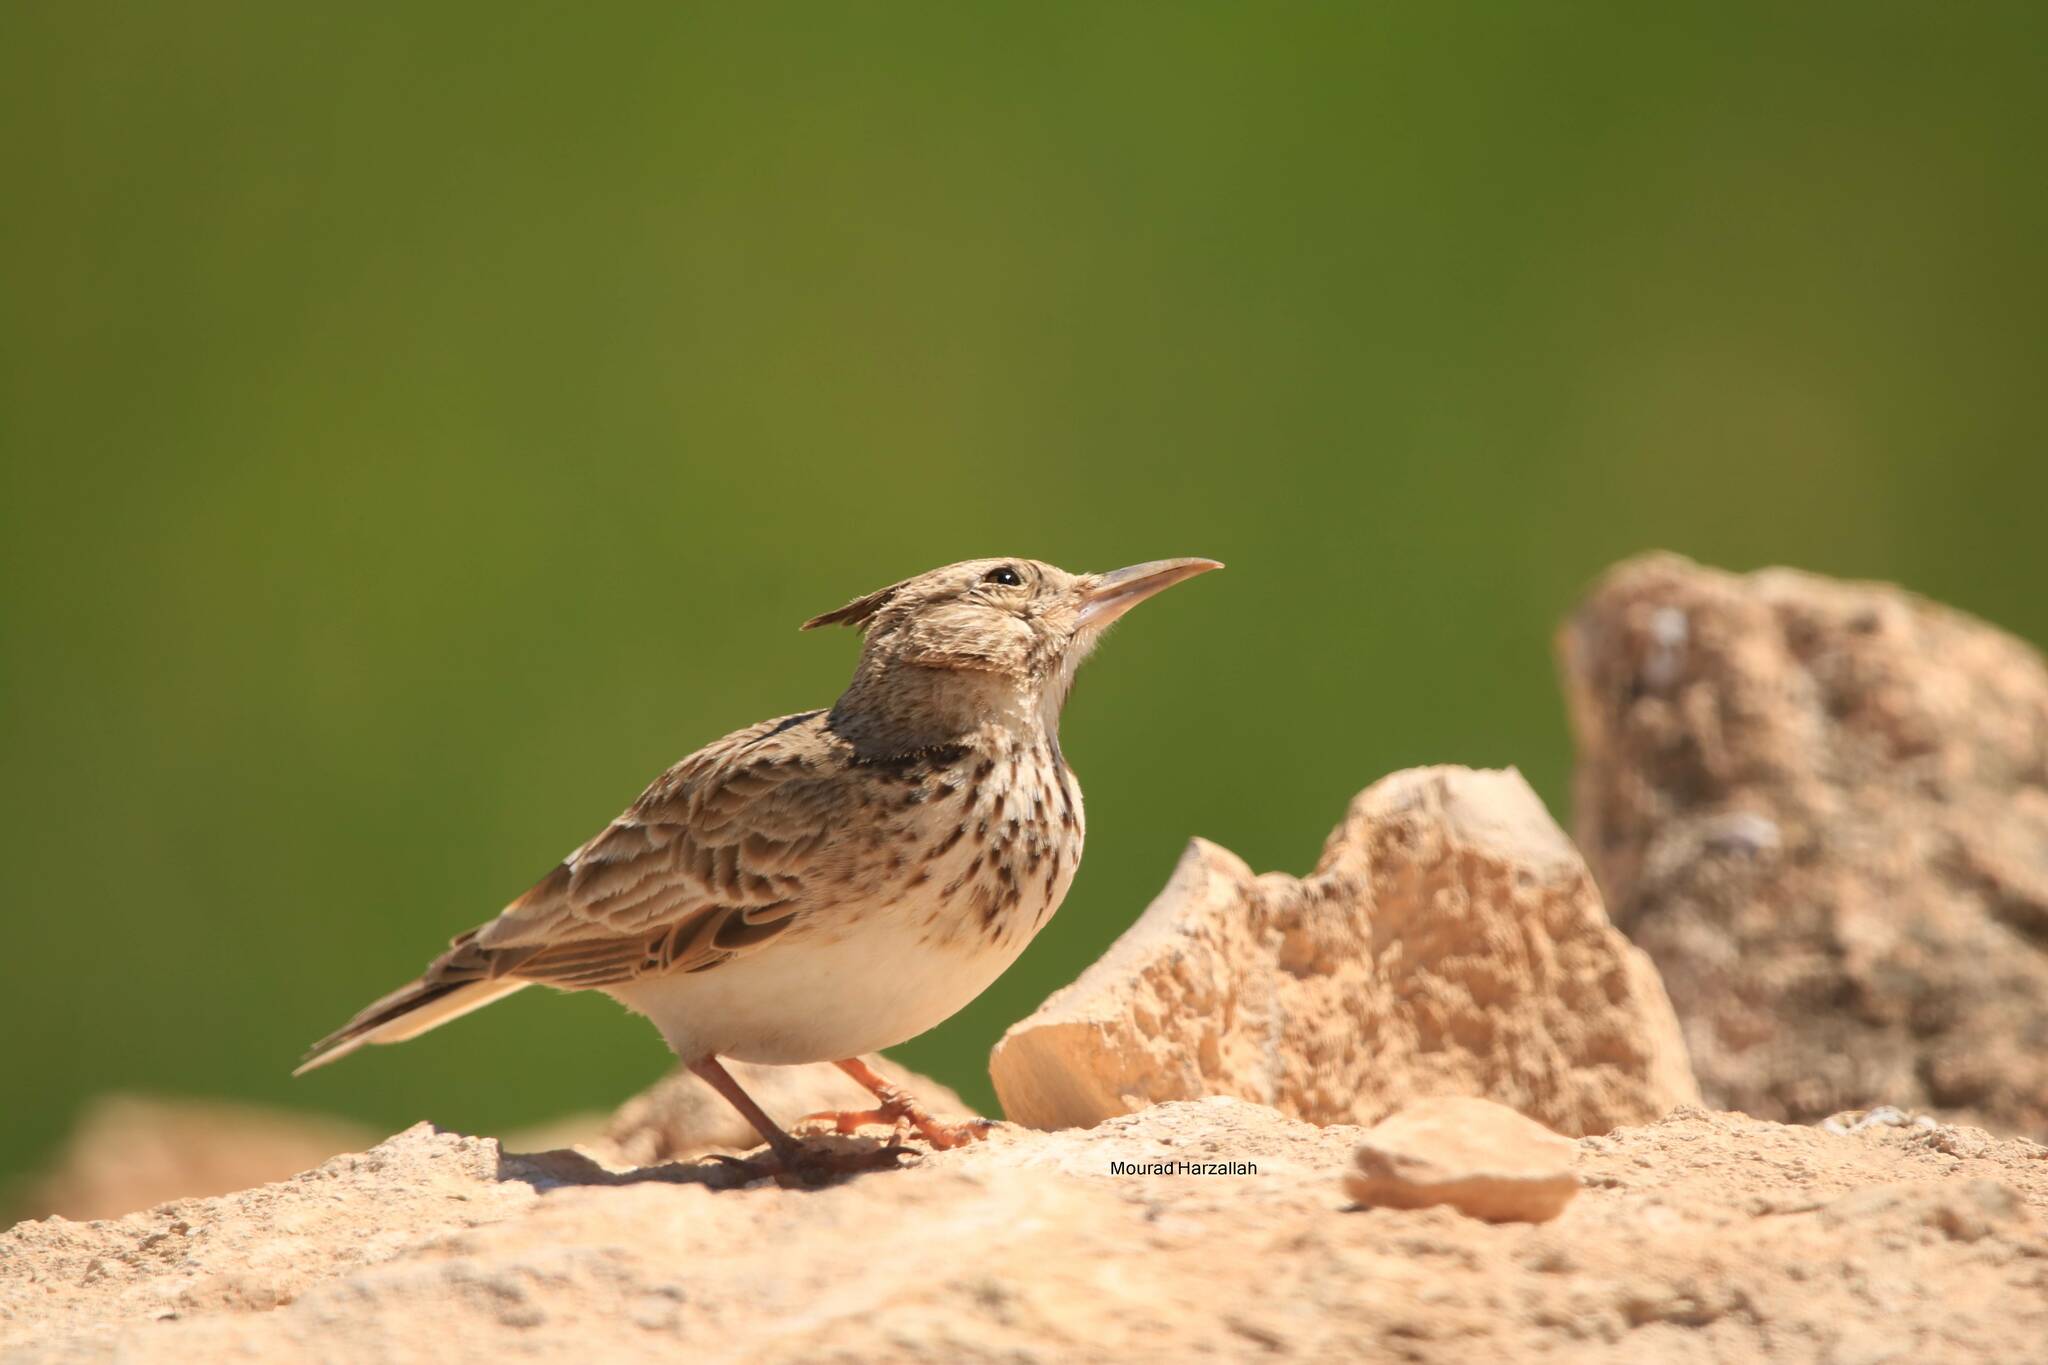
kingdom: Animalia
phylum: Chordata
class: Aves
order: Passeriformes
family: Alaudidae
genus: Galerida
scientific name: Galerida cristata
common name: Crested lark
